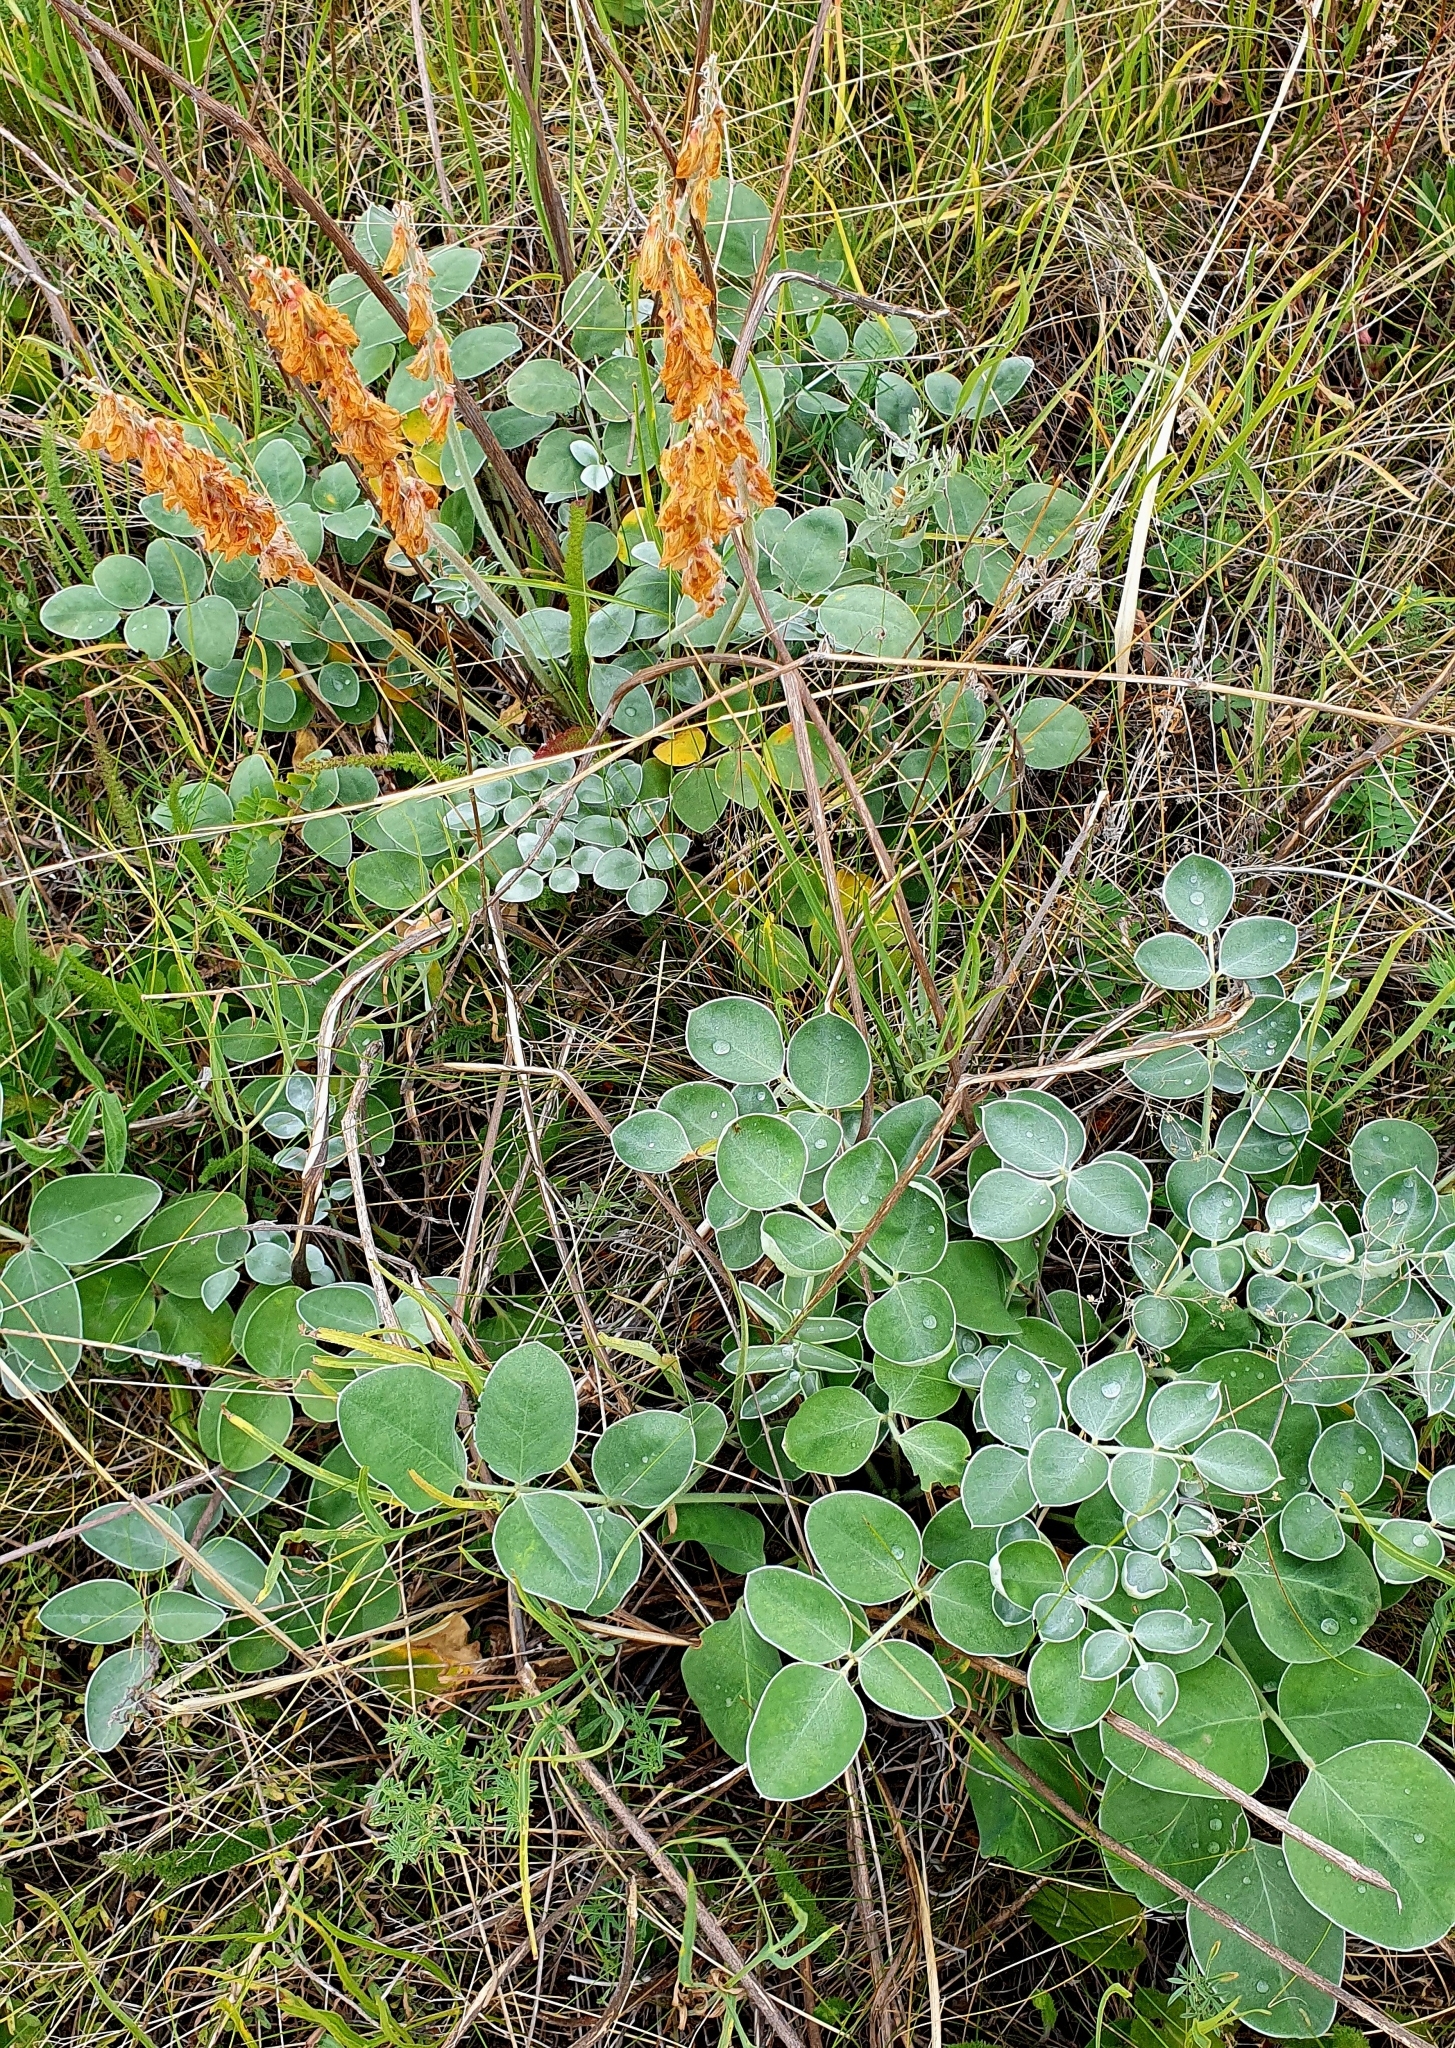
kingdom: Plantae
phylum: Tracheophyta
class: Magnoliopsida
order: Fabales
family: Fabaceae
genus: Hedysarum
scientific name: Hedysarum grandiflorum
